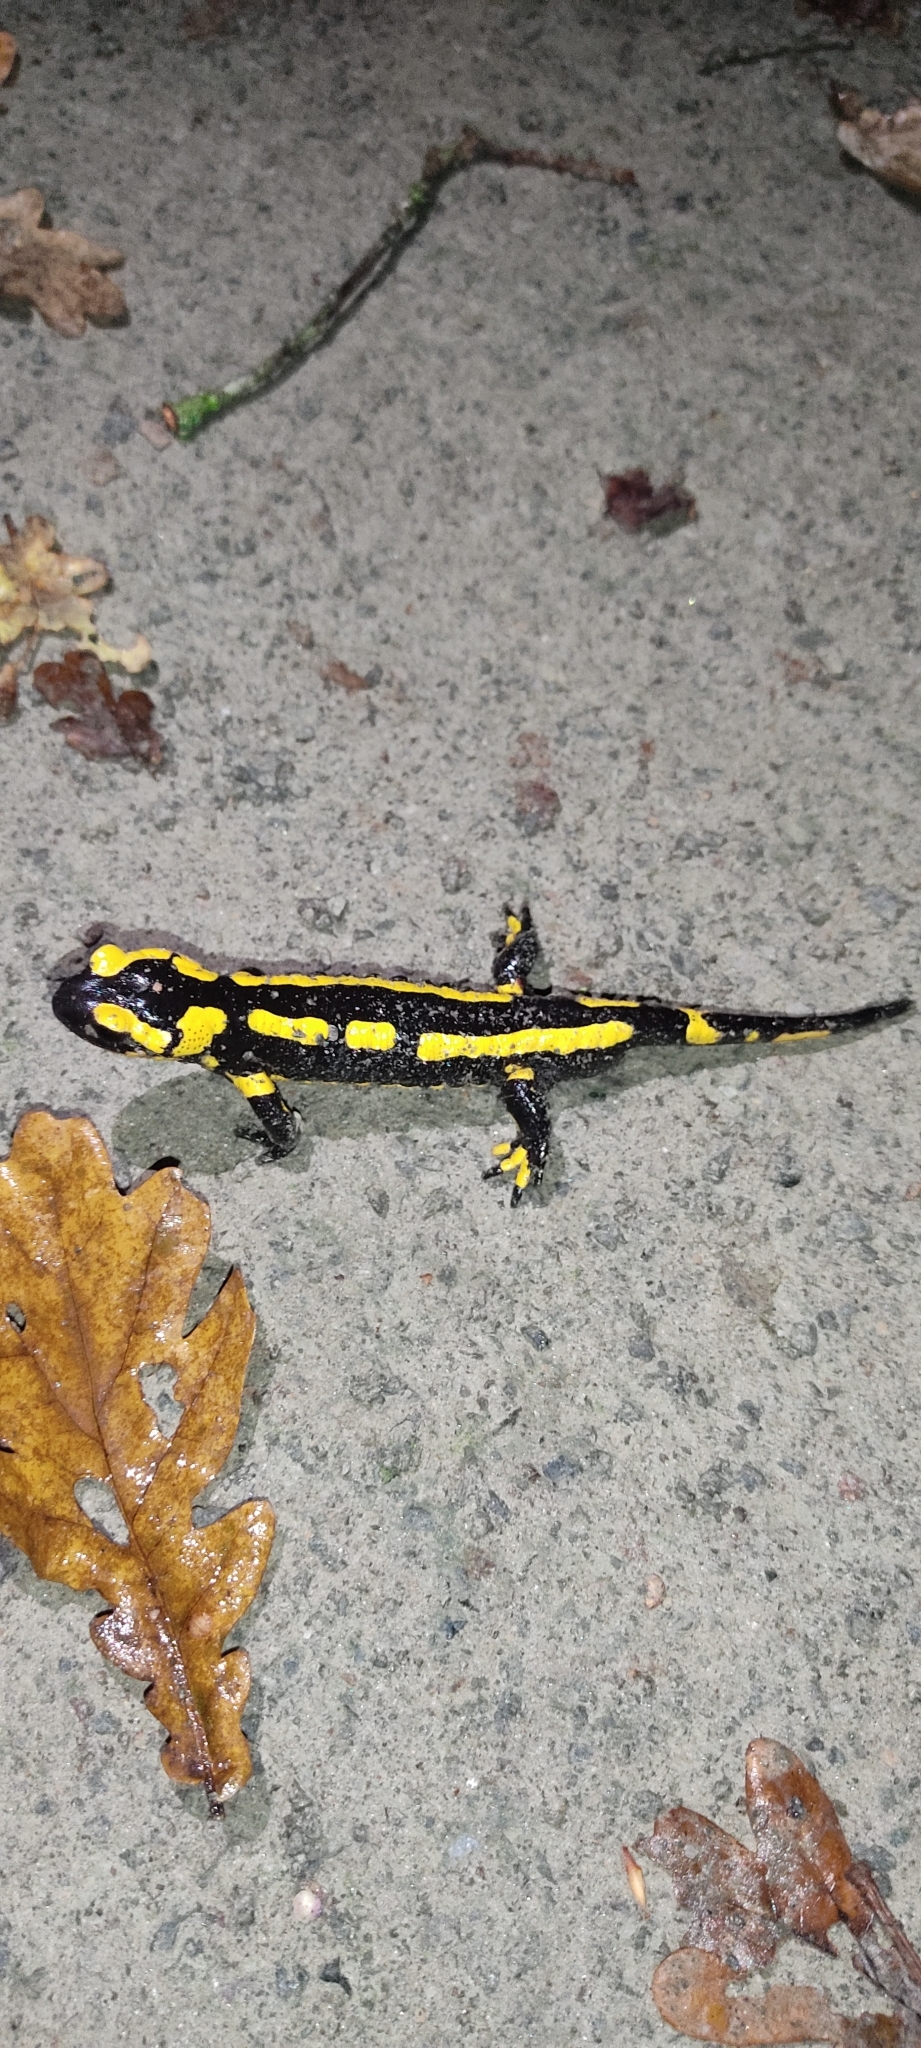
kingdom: Animalia
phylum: Chordata
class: Amphibia
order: Caudata
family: Salamandridae
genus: Salamandra
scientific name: Salamandra salamandra
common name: Fire salamander
